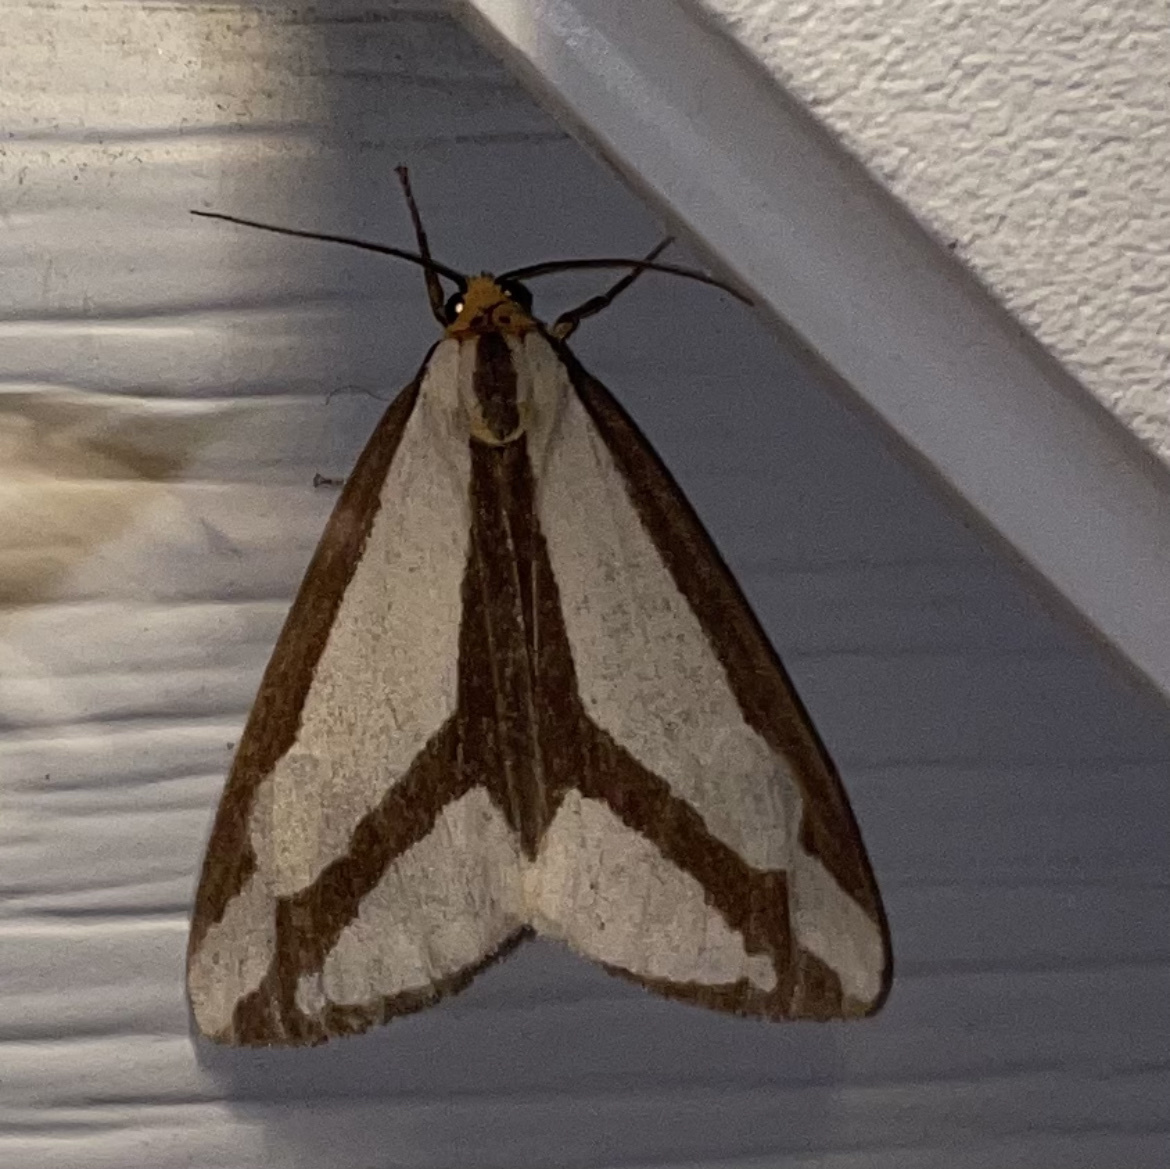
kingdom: Animalia
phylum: Arthropoda
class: Insecta
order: Lepidoptera
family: Erebidae
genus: Haploa
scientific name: Haploa lecontei
